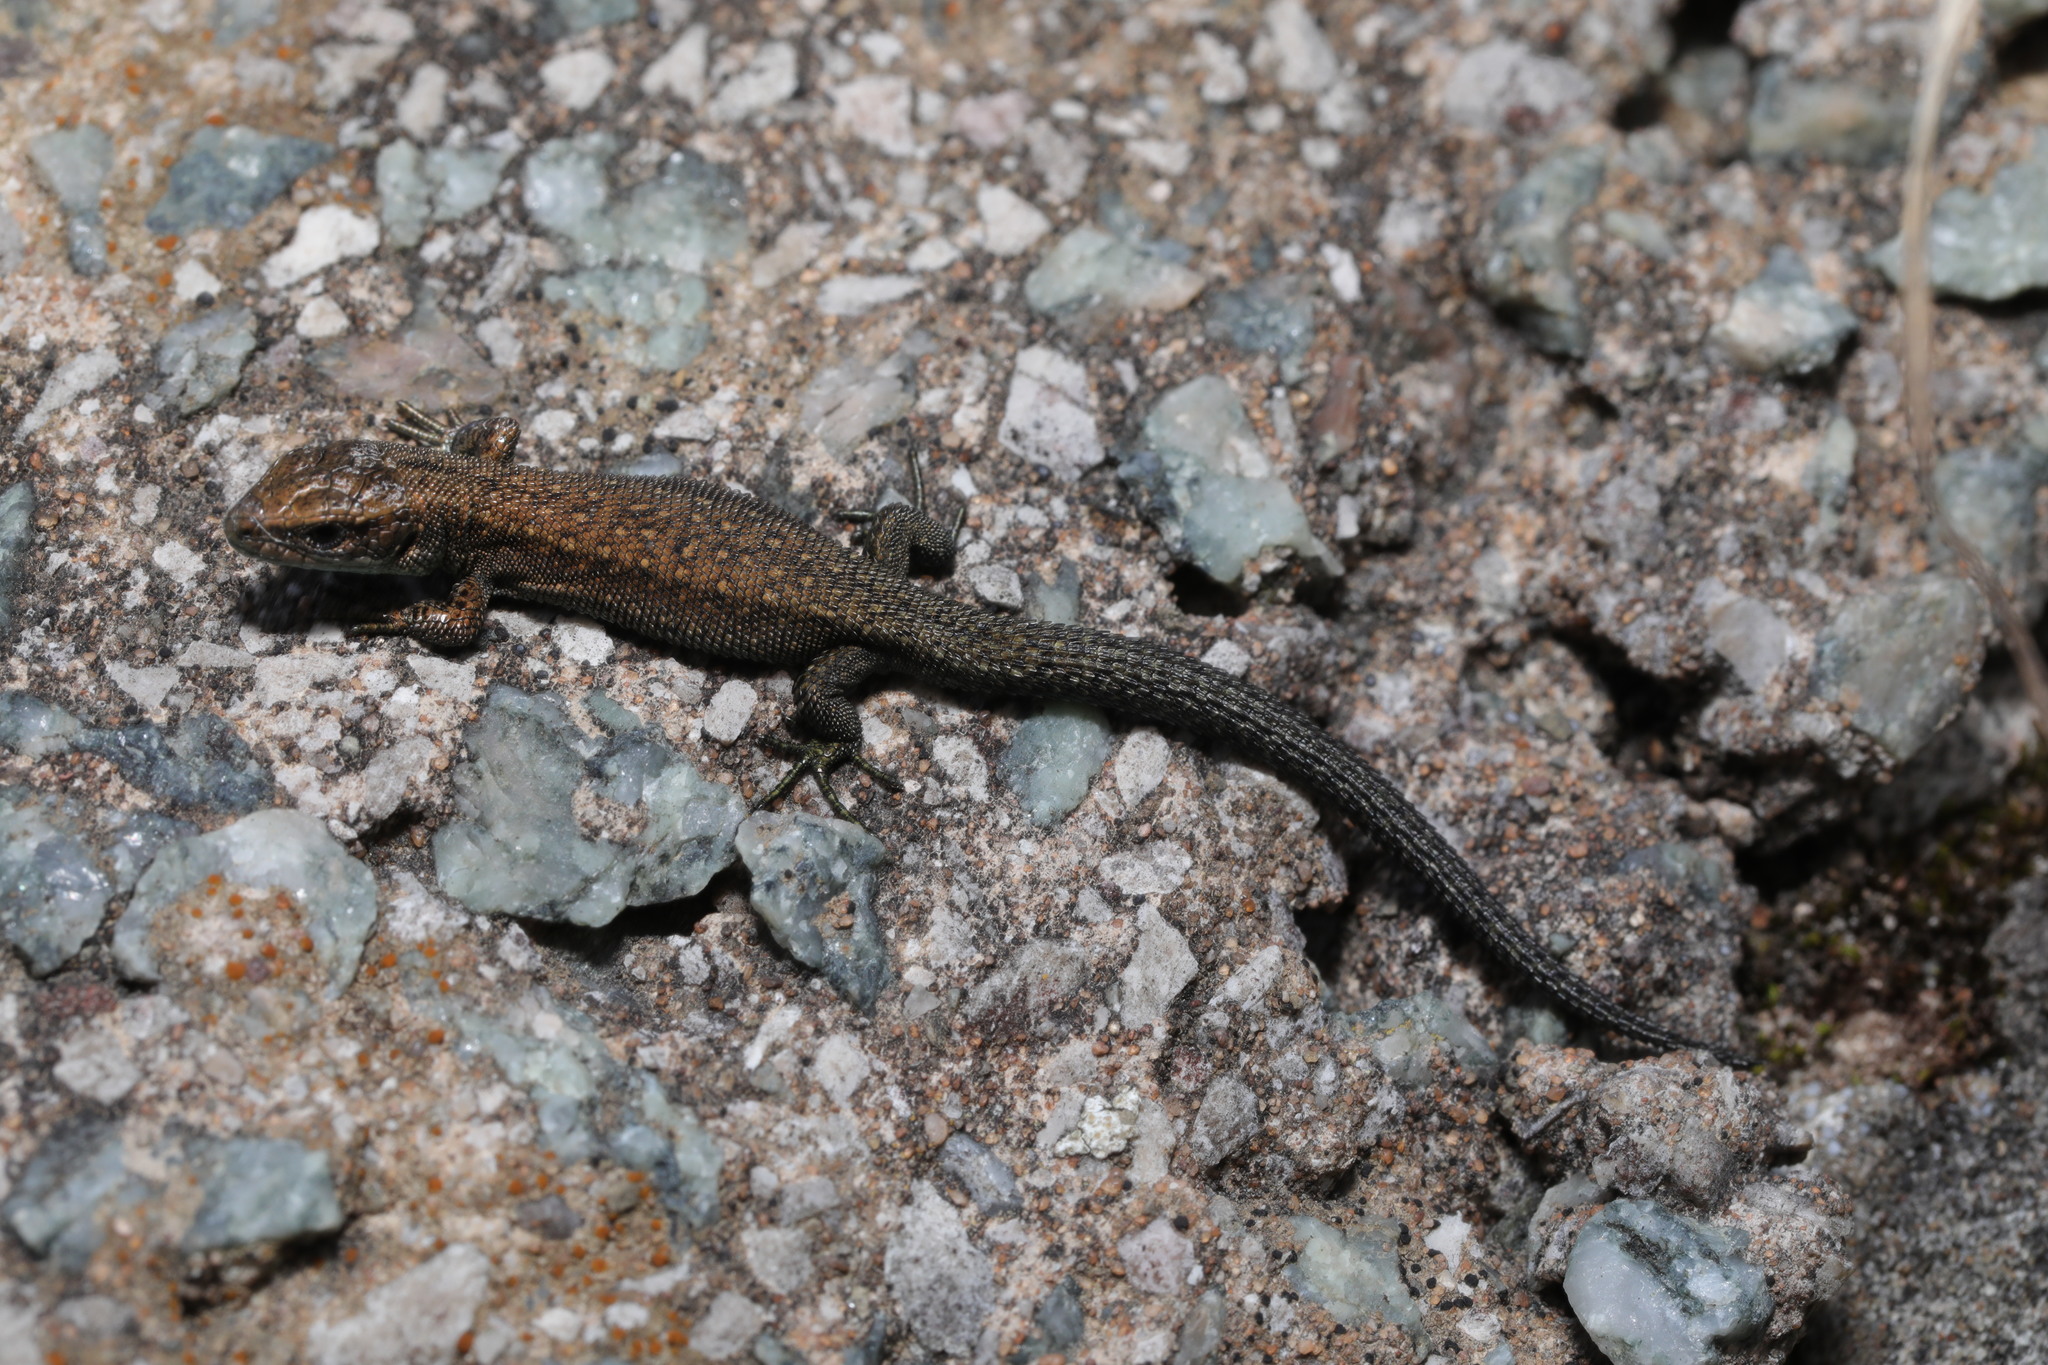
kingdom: Animalia
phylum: Chordata
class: Squamata
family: Lacertidae
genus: Zootoca
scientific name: Zootoca vivipara
